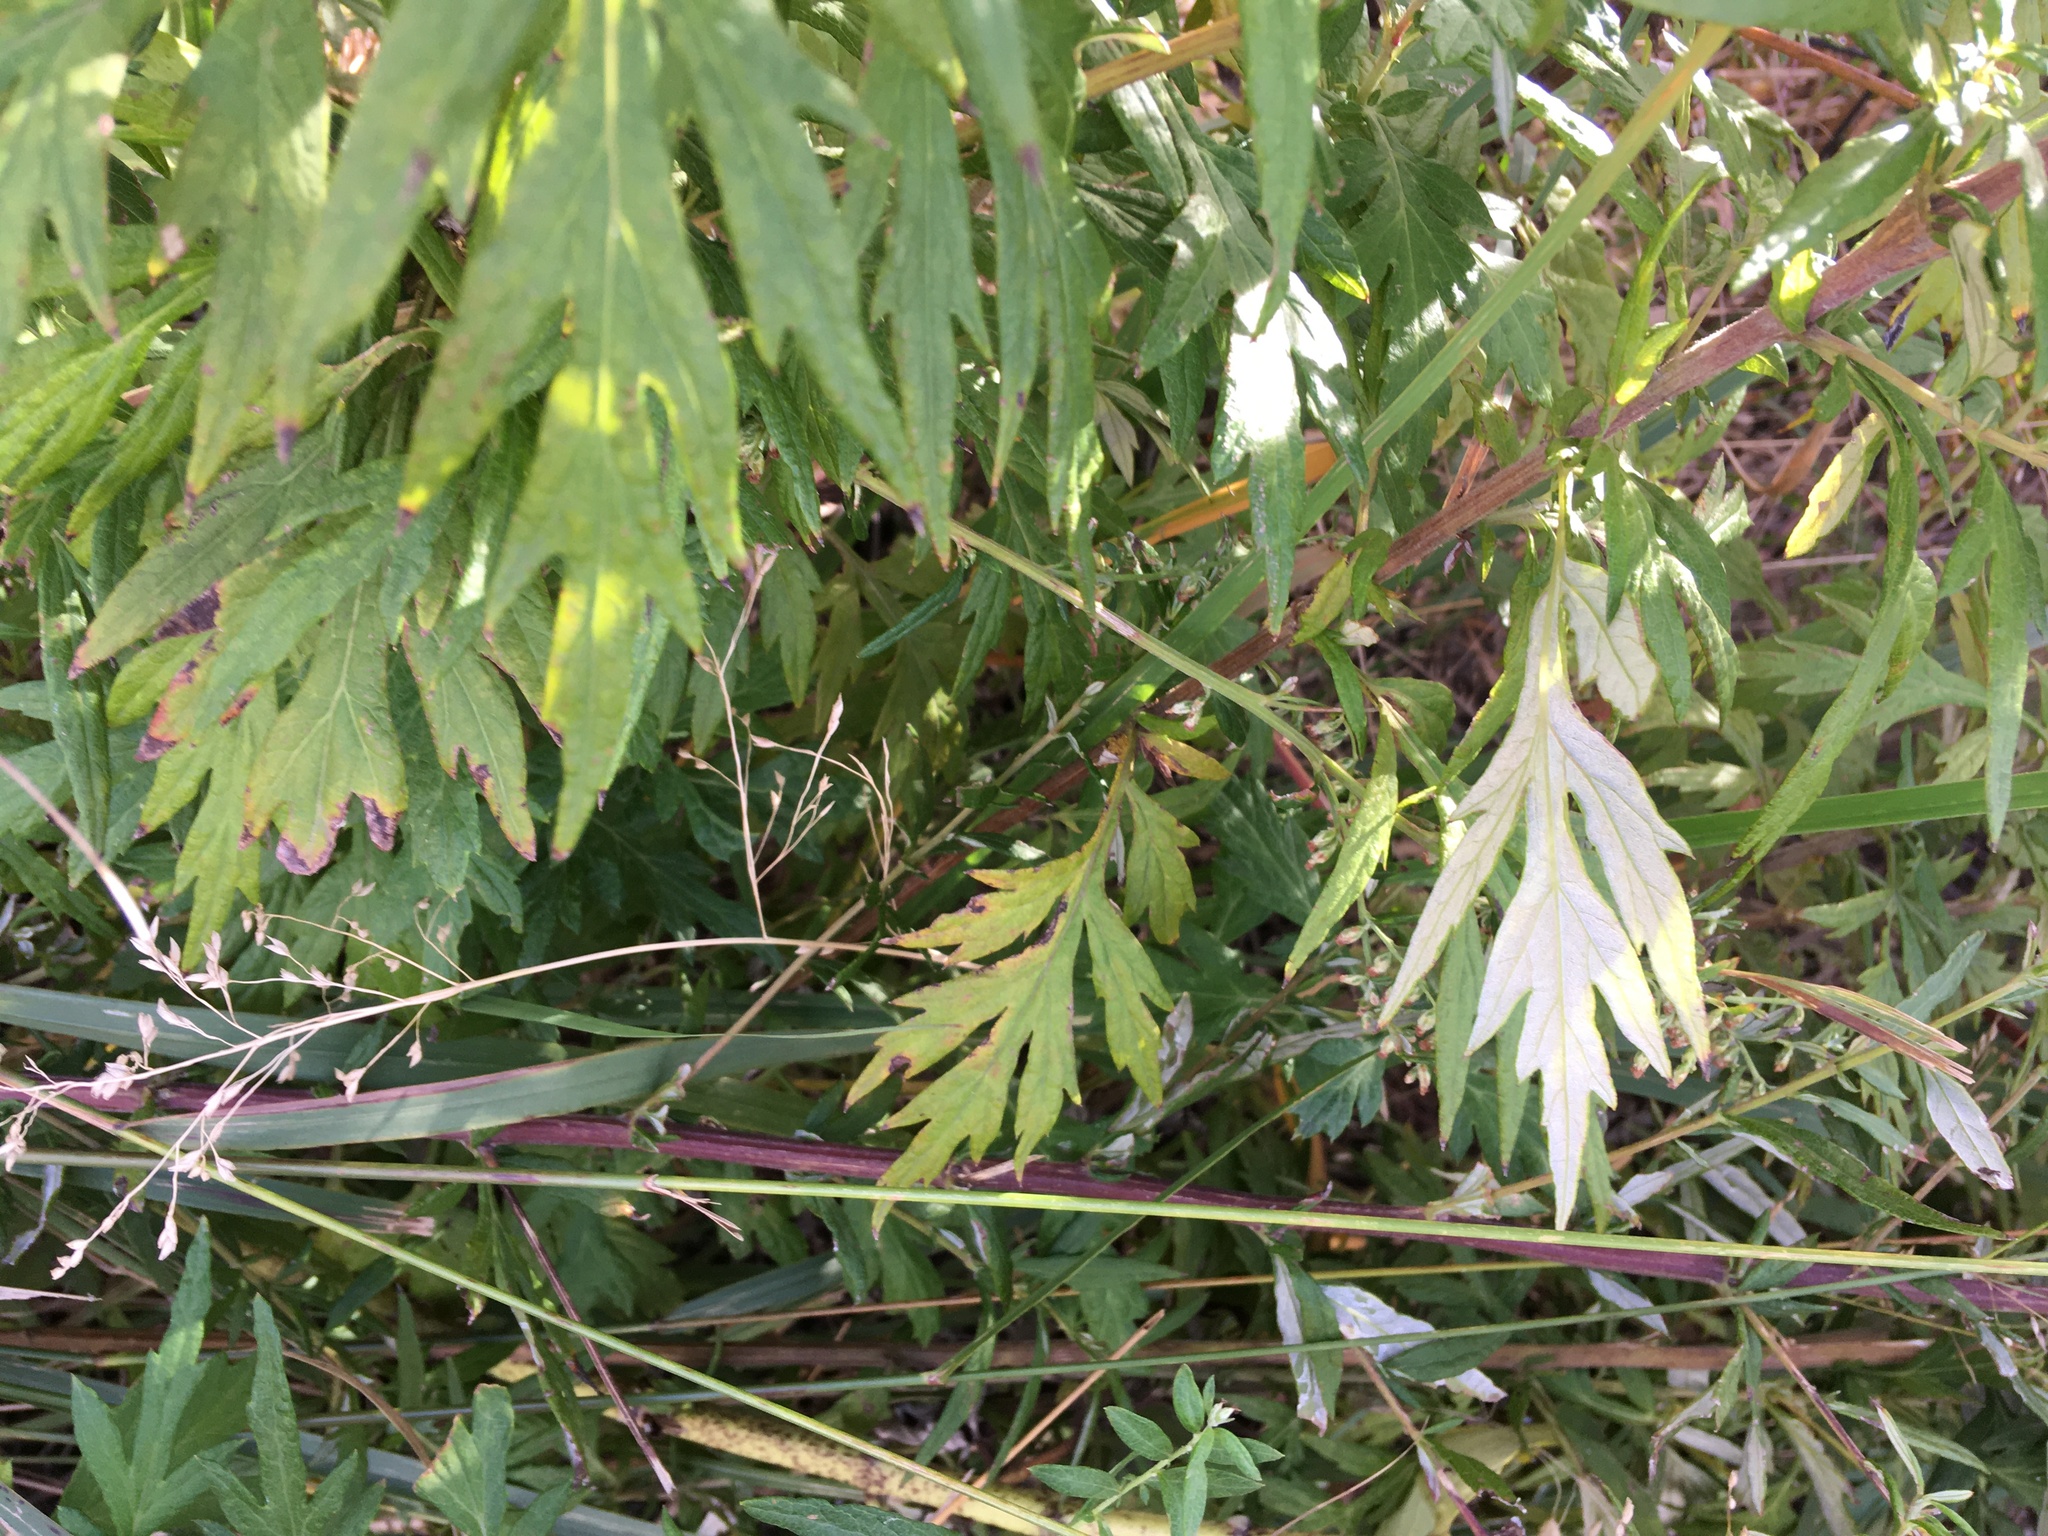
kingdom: Plantae
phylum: Tracheophyta
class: Magnoliopsida
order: Asterales
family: Asteraceae
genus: Artemisia
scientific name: Artemisia vulgaris
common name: Mugwort
